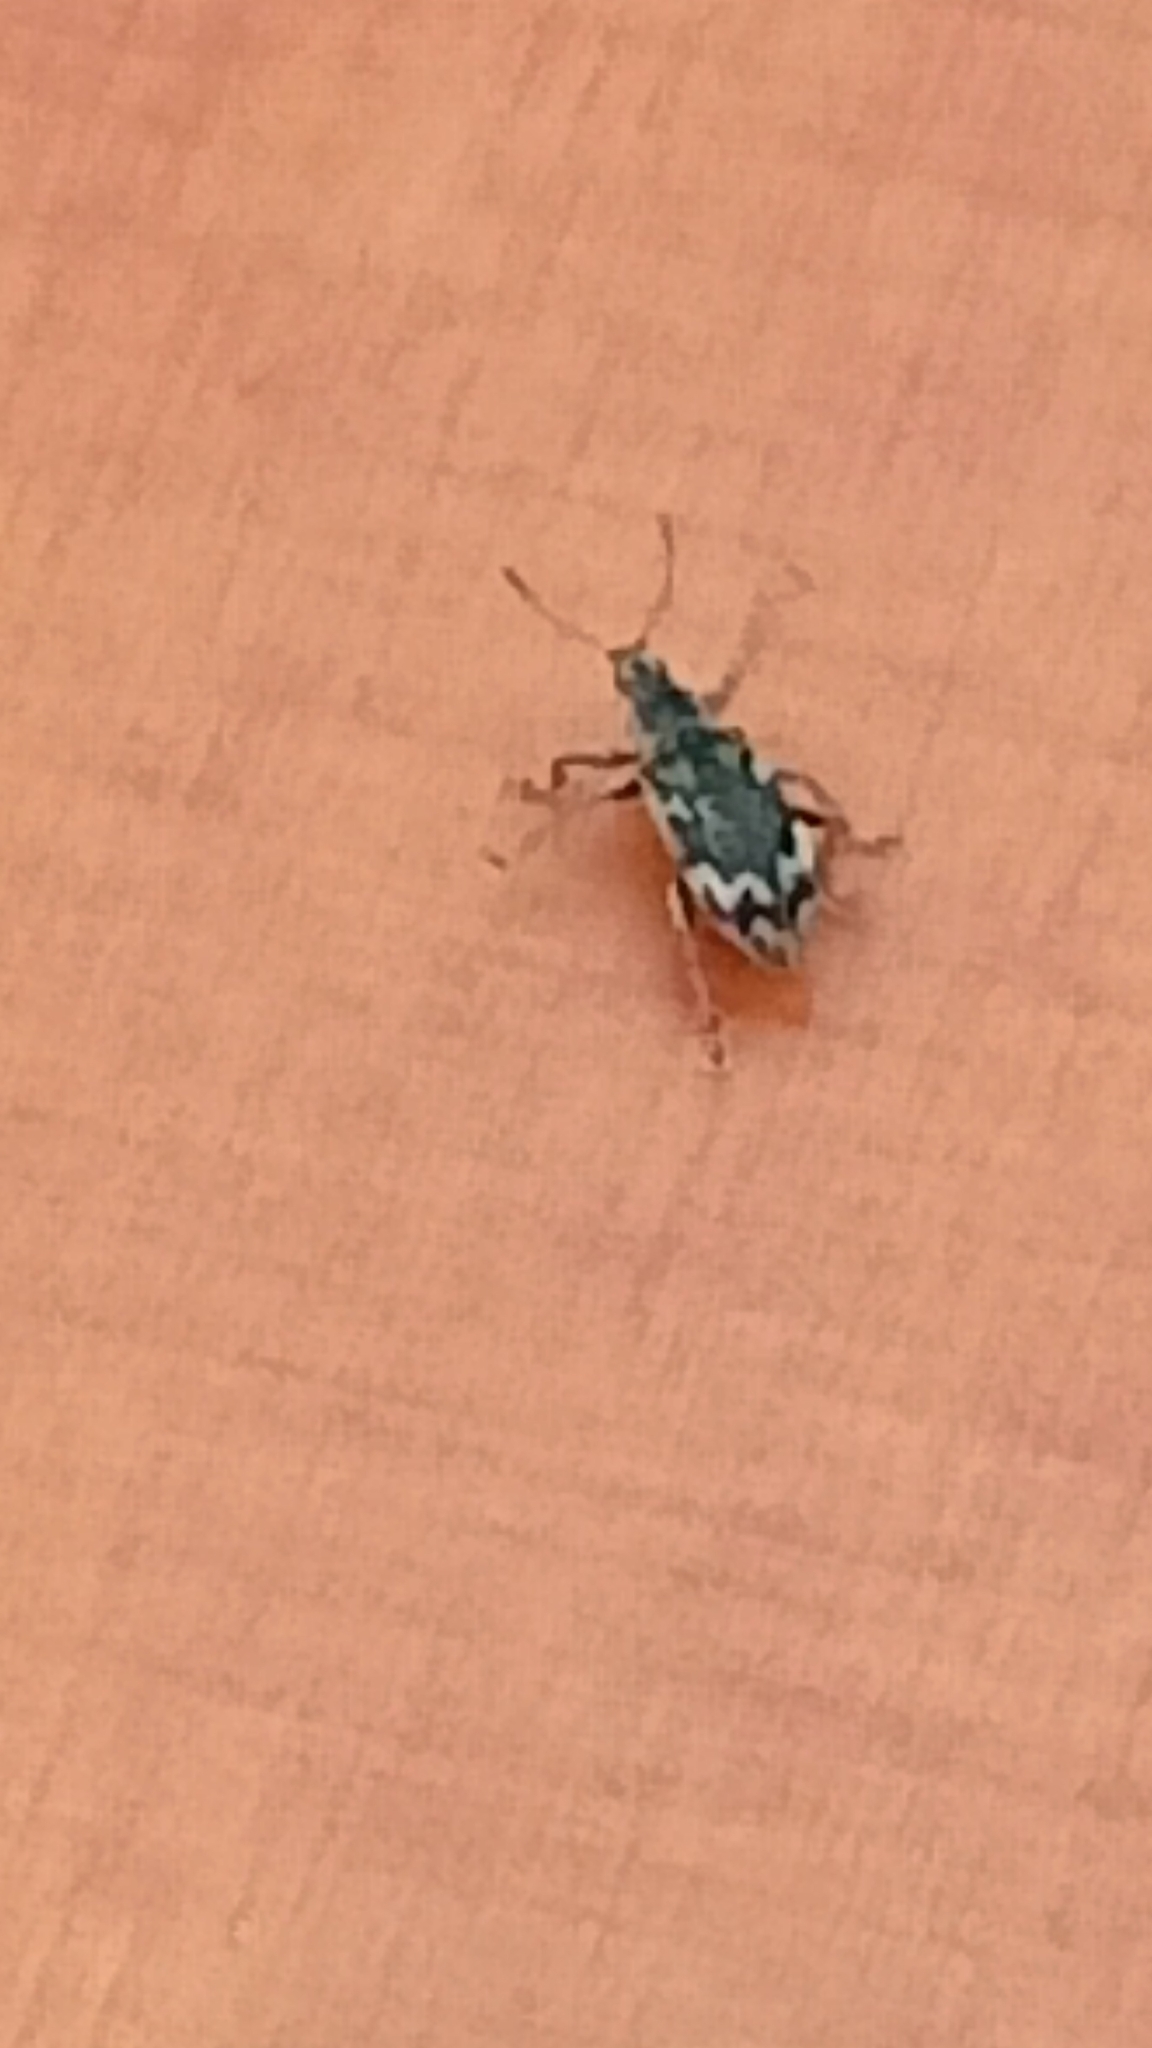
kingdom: Animalia
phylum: Arthropoda
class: Insecta
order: Coleoptera
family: Curculionidae
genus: Polydrusus
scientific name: Polydrusus tereticollis
